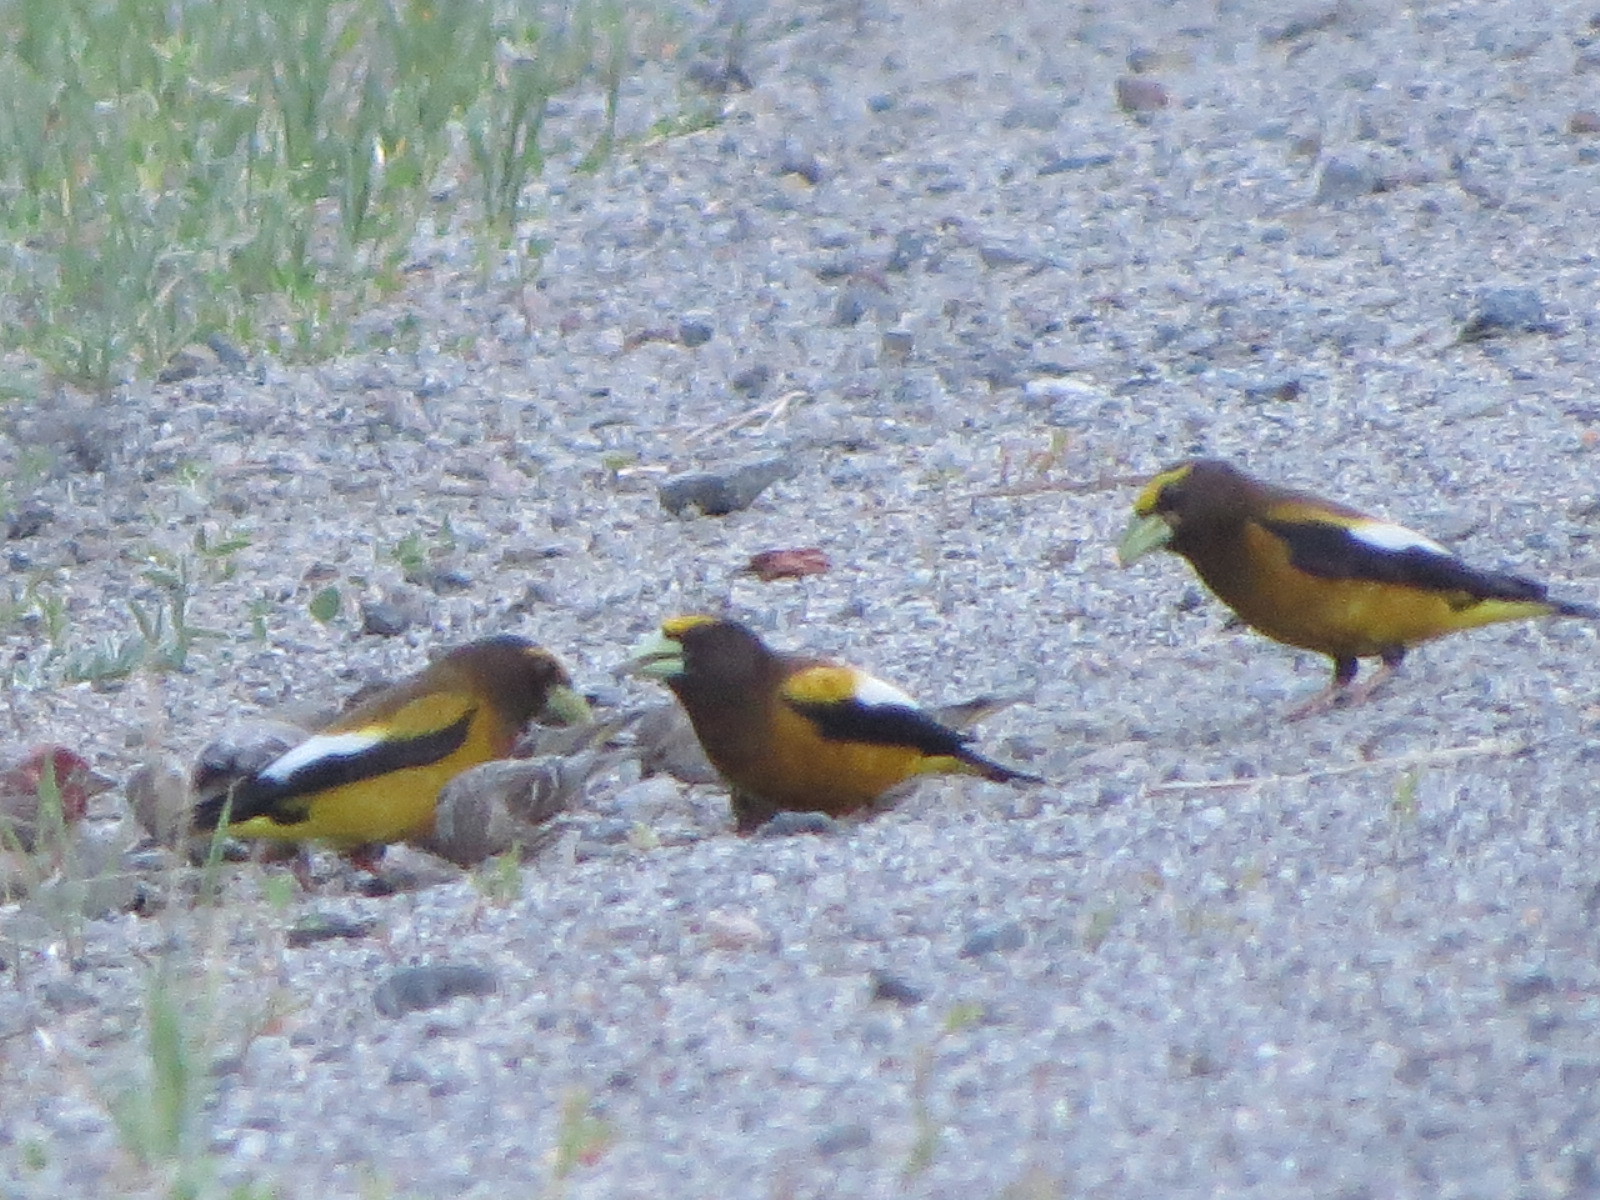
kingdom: Animalia
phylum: Chordata
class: Aves
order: Passeriformes
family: Fringillidae
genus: Hesperiphona
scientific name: Hesperiphona vespertina
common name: Evening grosbeak
